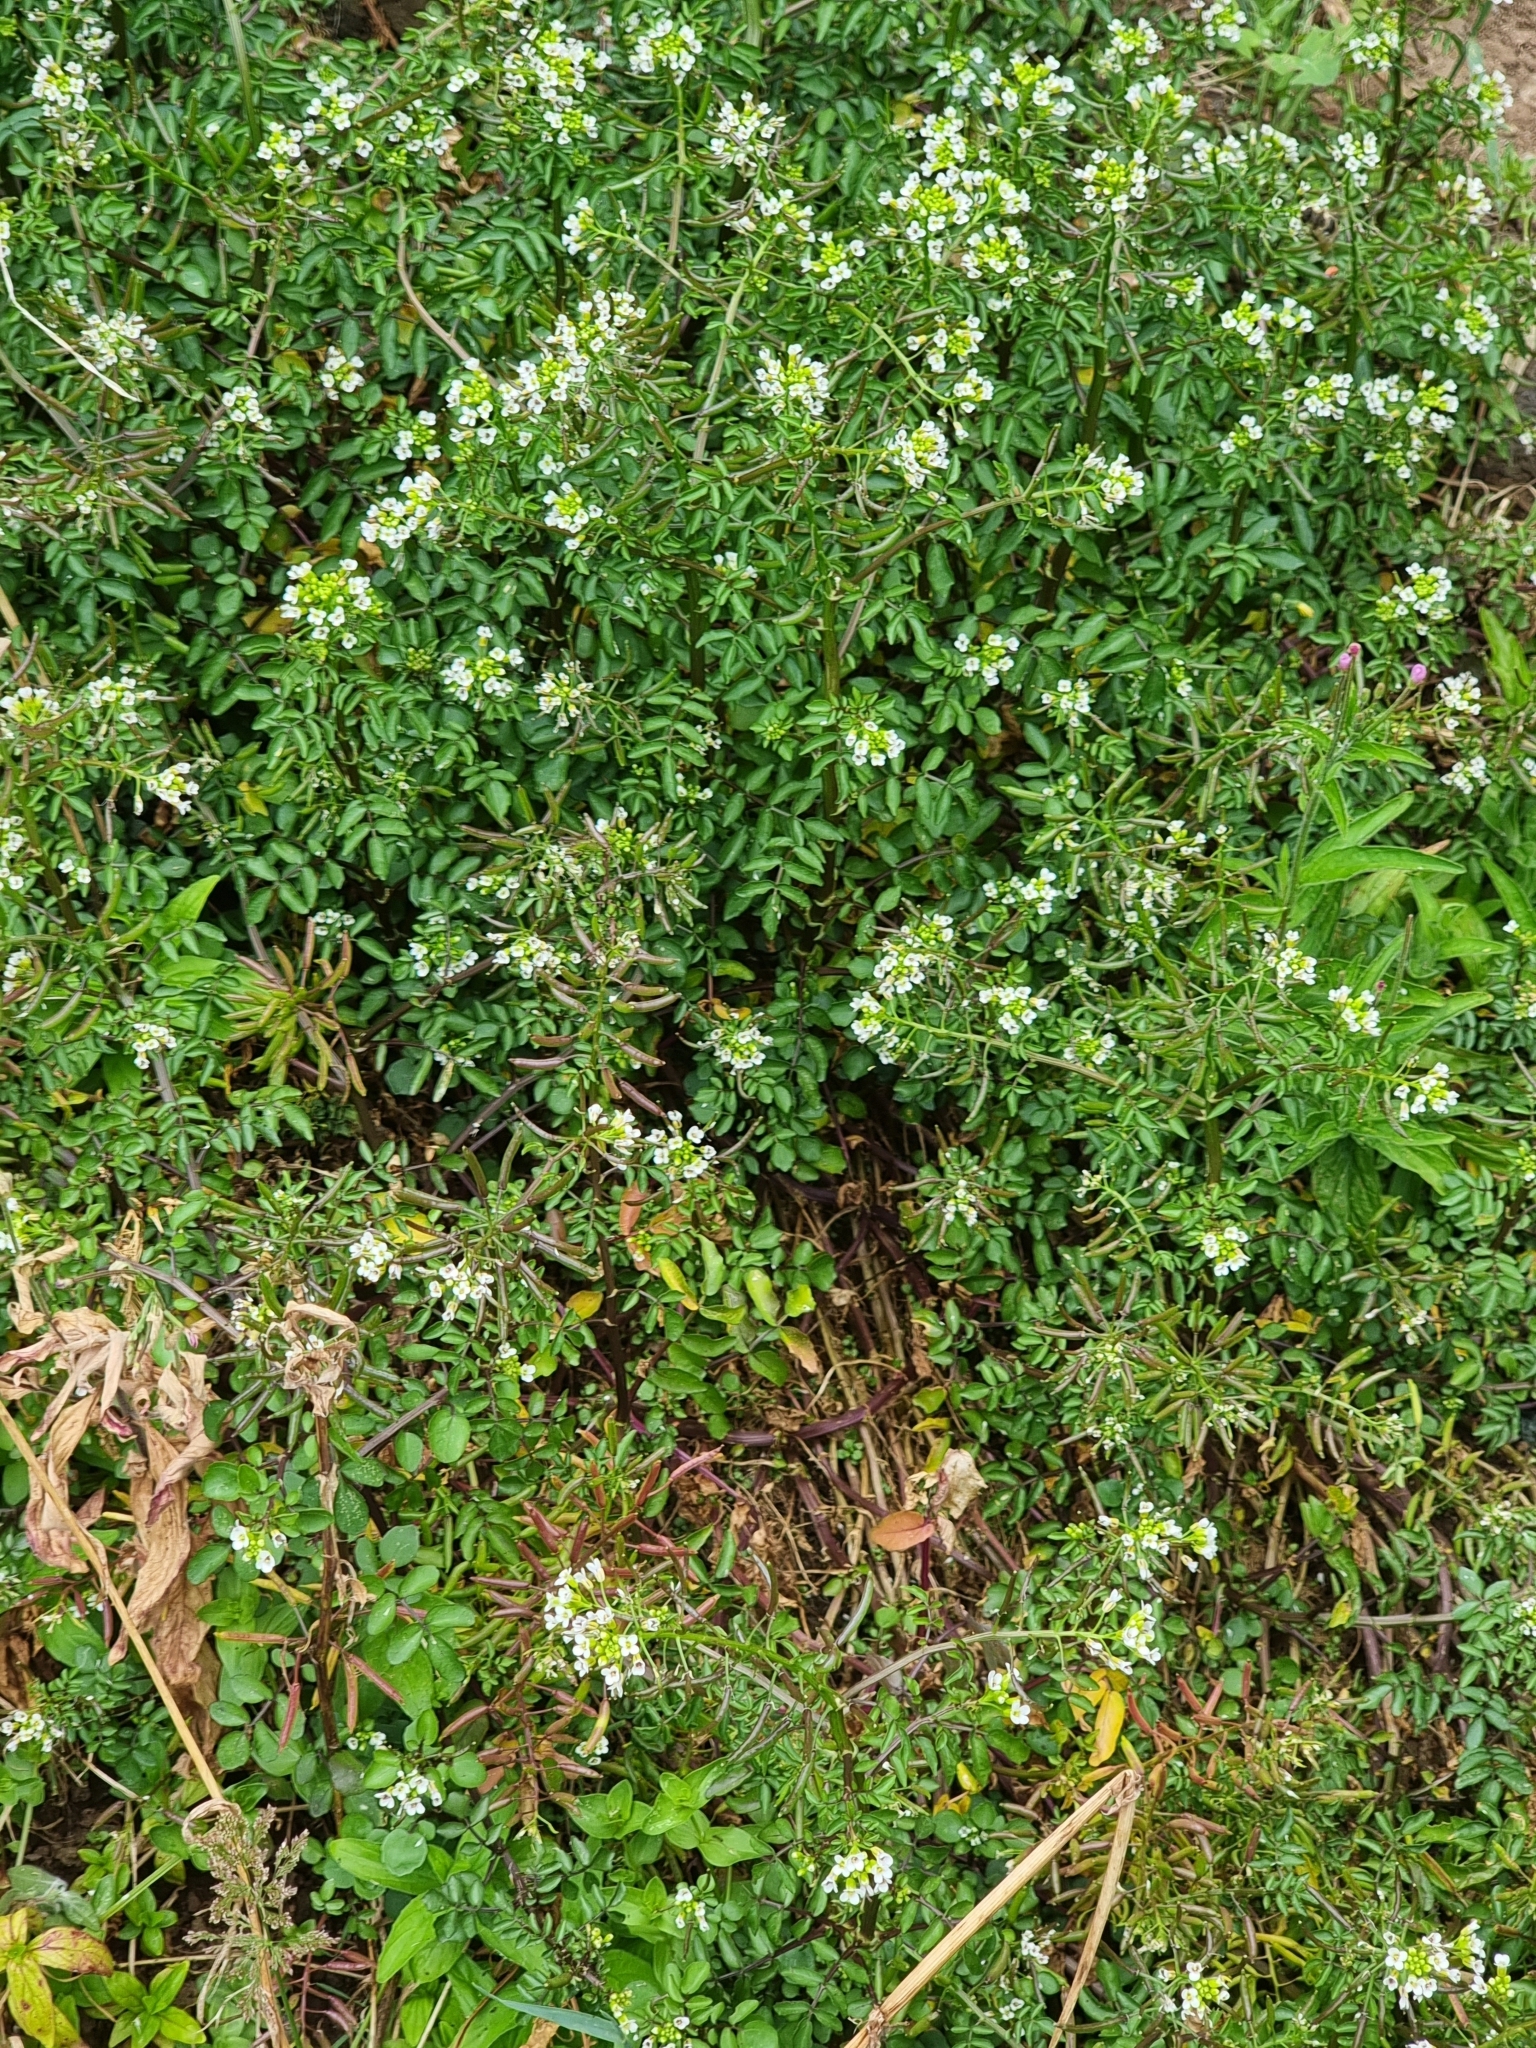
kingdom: Plantae
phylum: Tracheophyta
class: Magnoliopsida
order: Brassicales
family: Brassicaceae
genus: Nasturtium
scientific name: Nasturtium sterile
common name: Yellowcress
